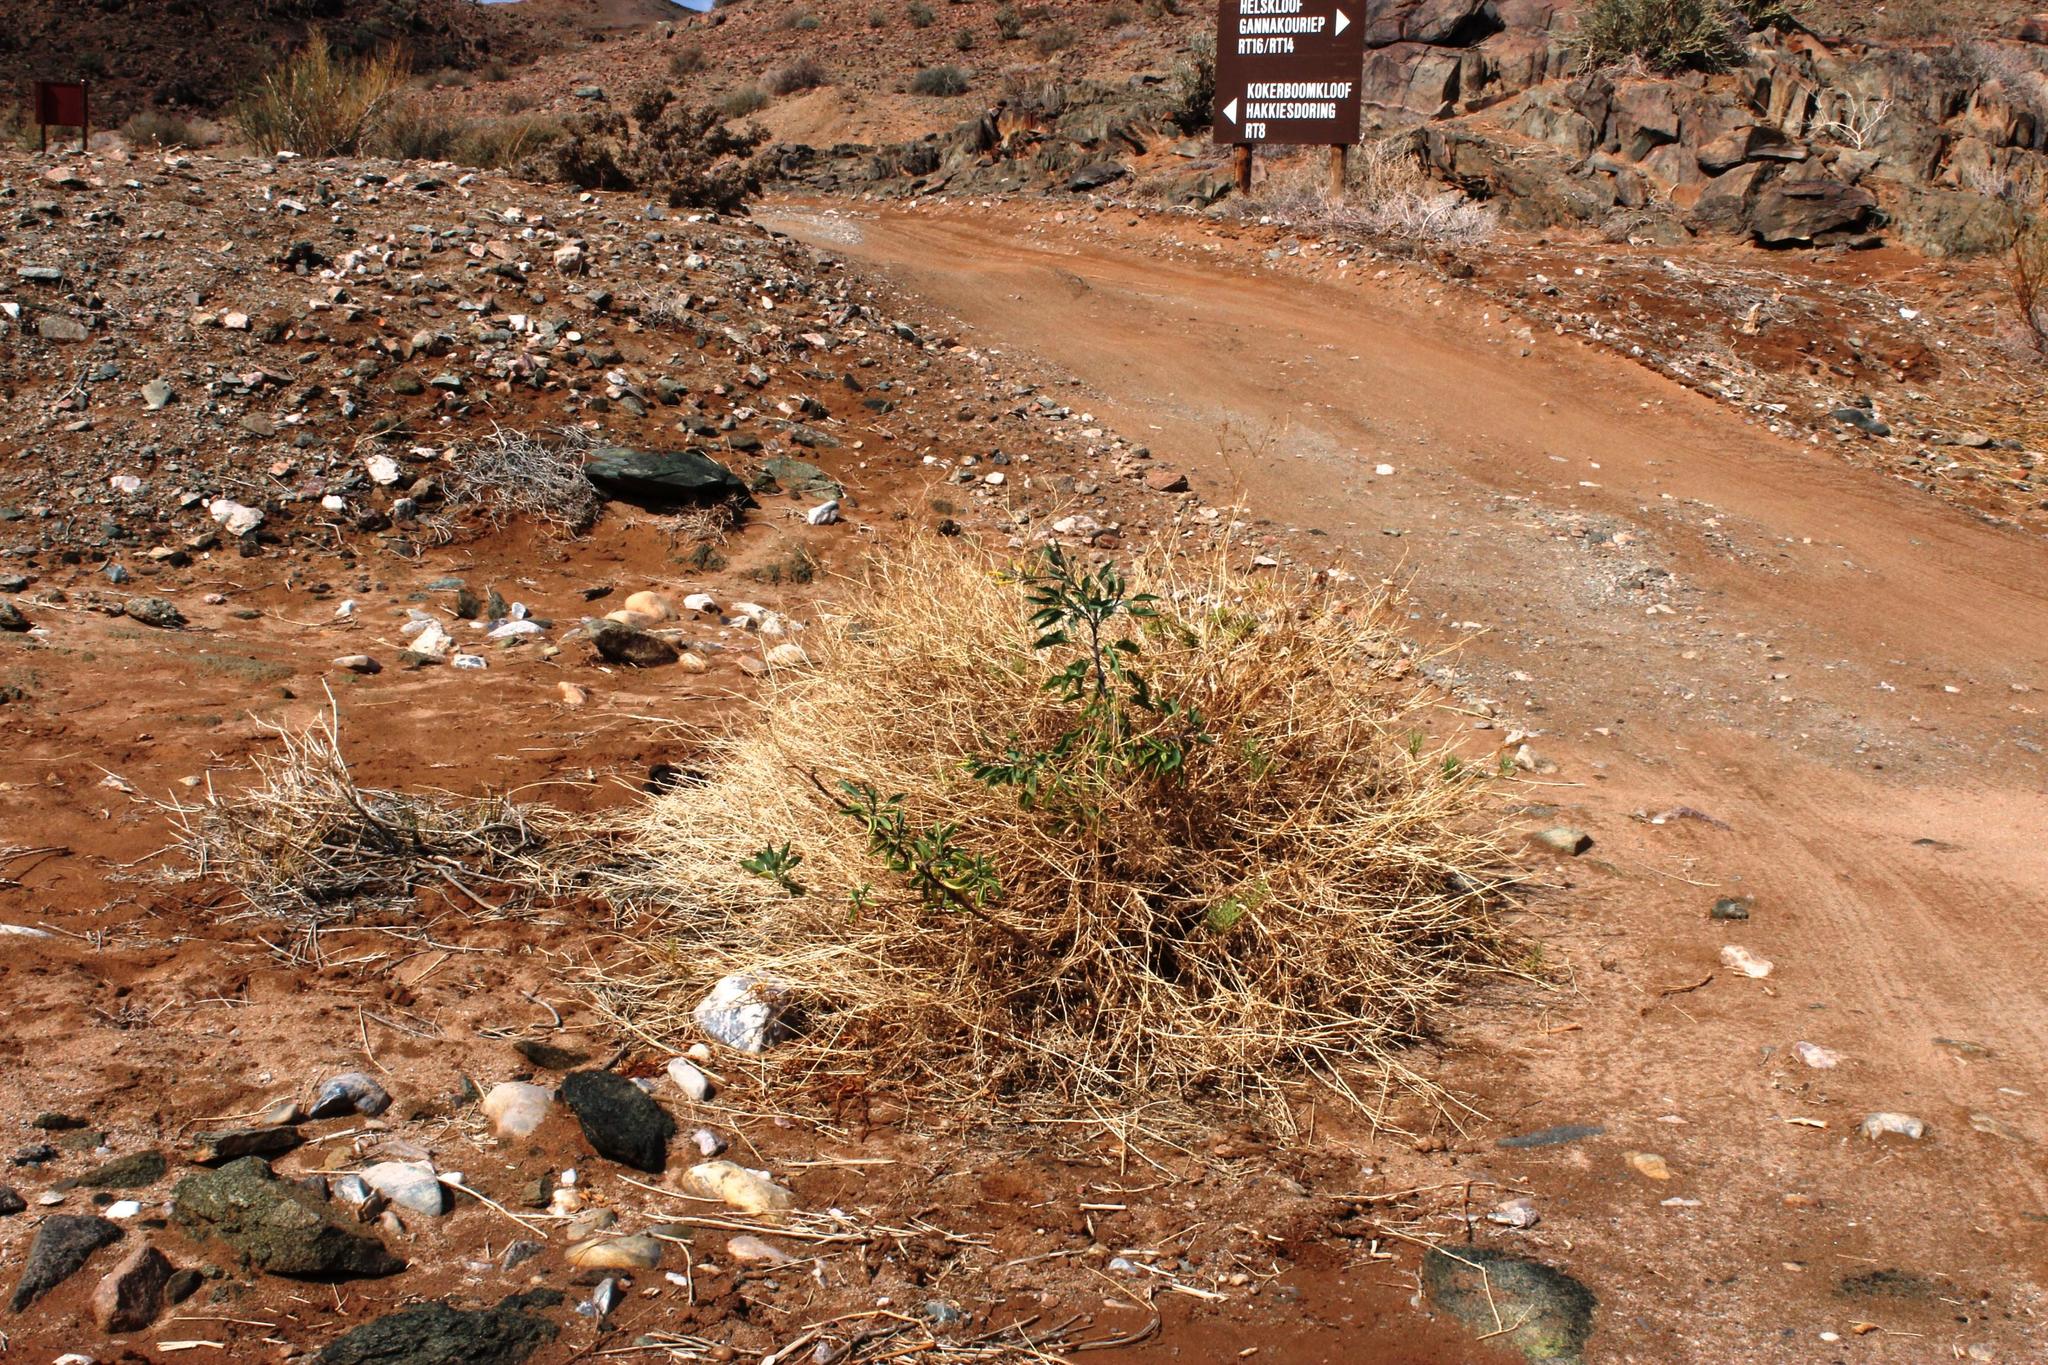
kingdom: Plantae
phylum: Tracheophyta
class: Magnoliopsida
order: Solanales
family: Solanaceae
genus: Nicotiana
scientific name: Nicotiana glauca
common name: Tree tobacco
